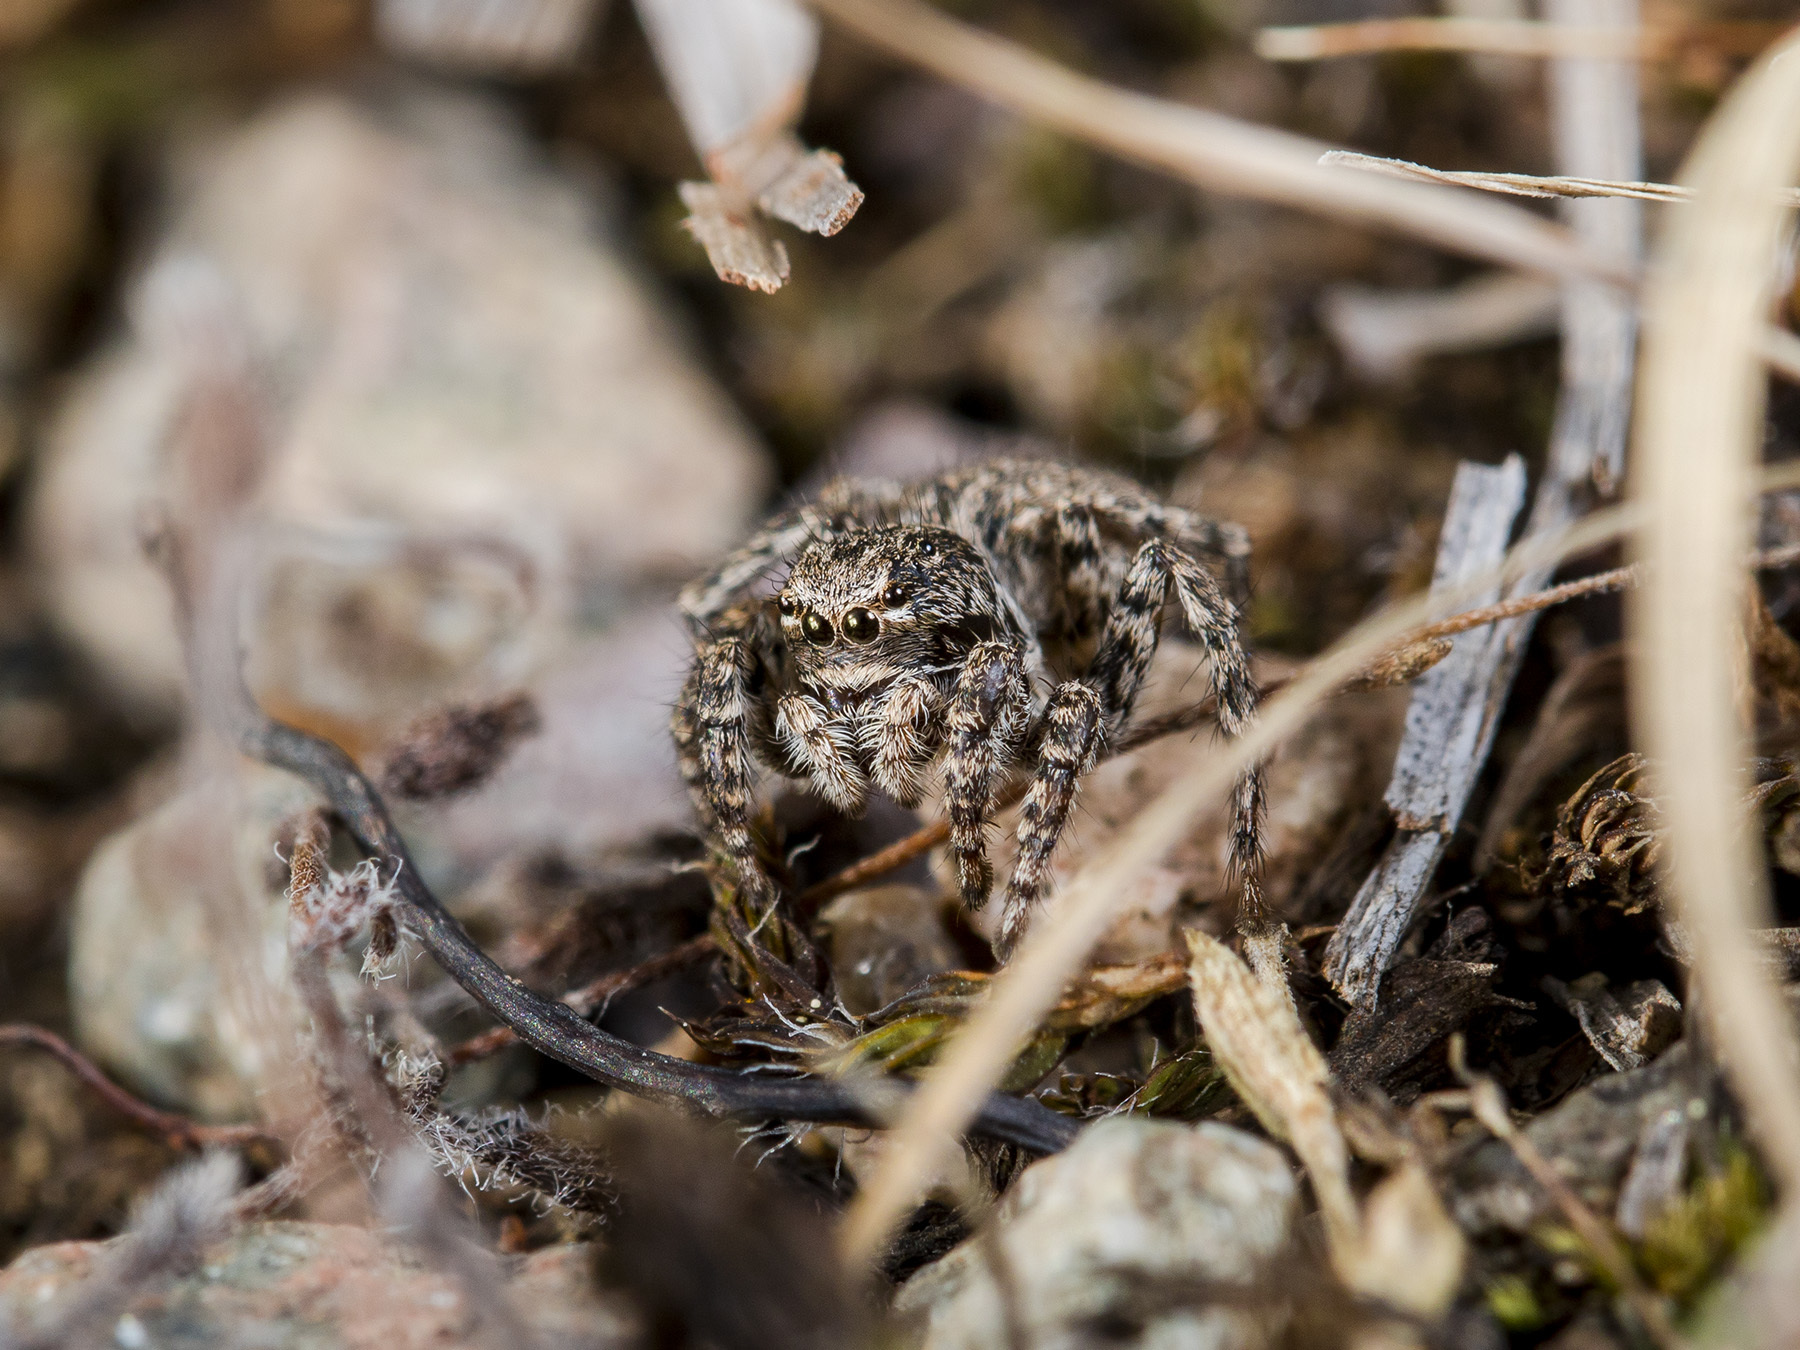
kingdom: Animalia
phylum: Arthropoda
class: Arachnida
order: Araneae
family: Salticidae
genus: Aelurillus
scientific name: Aelurillus v-insignitus
